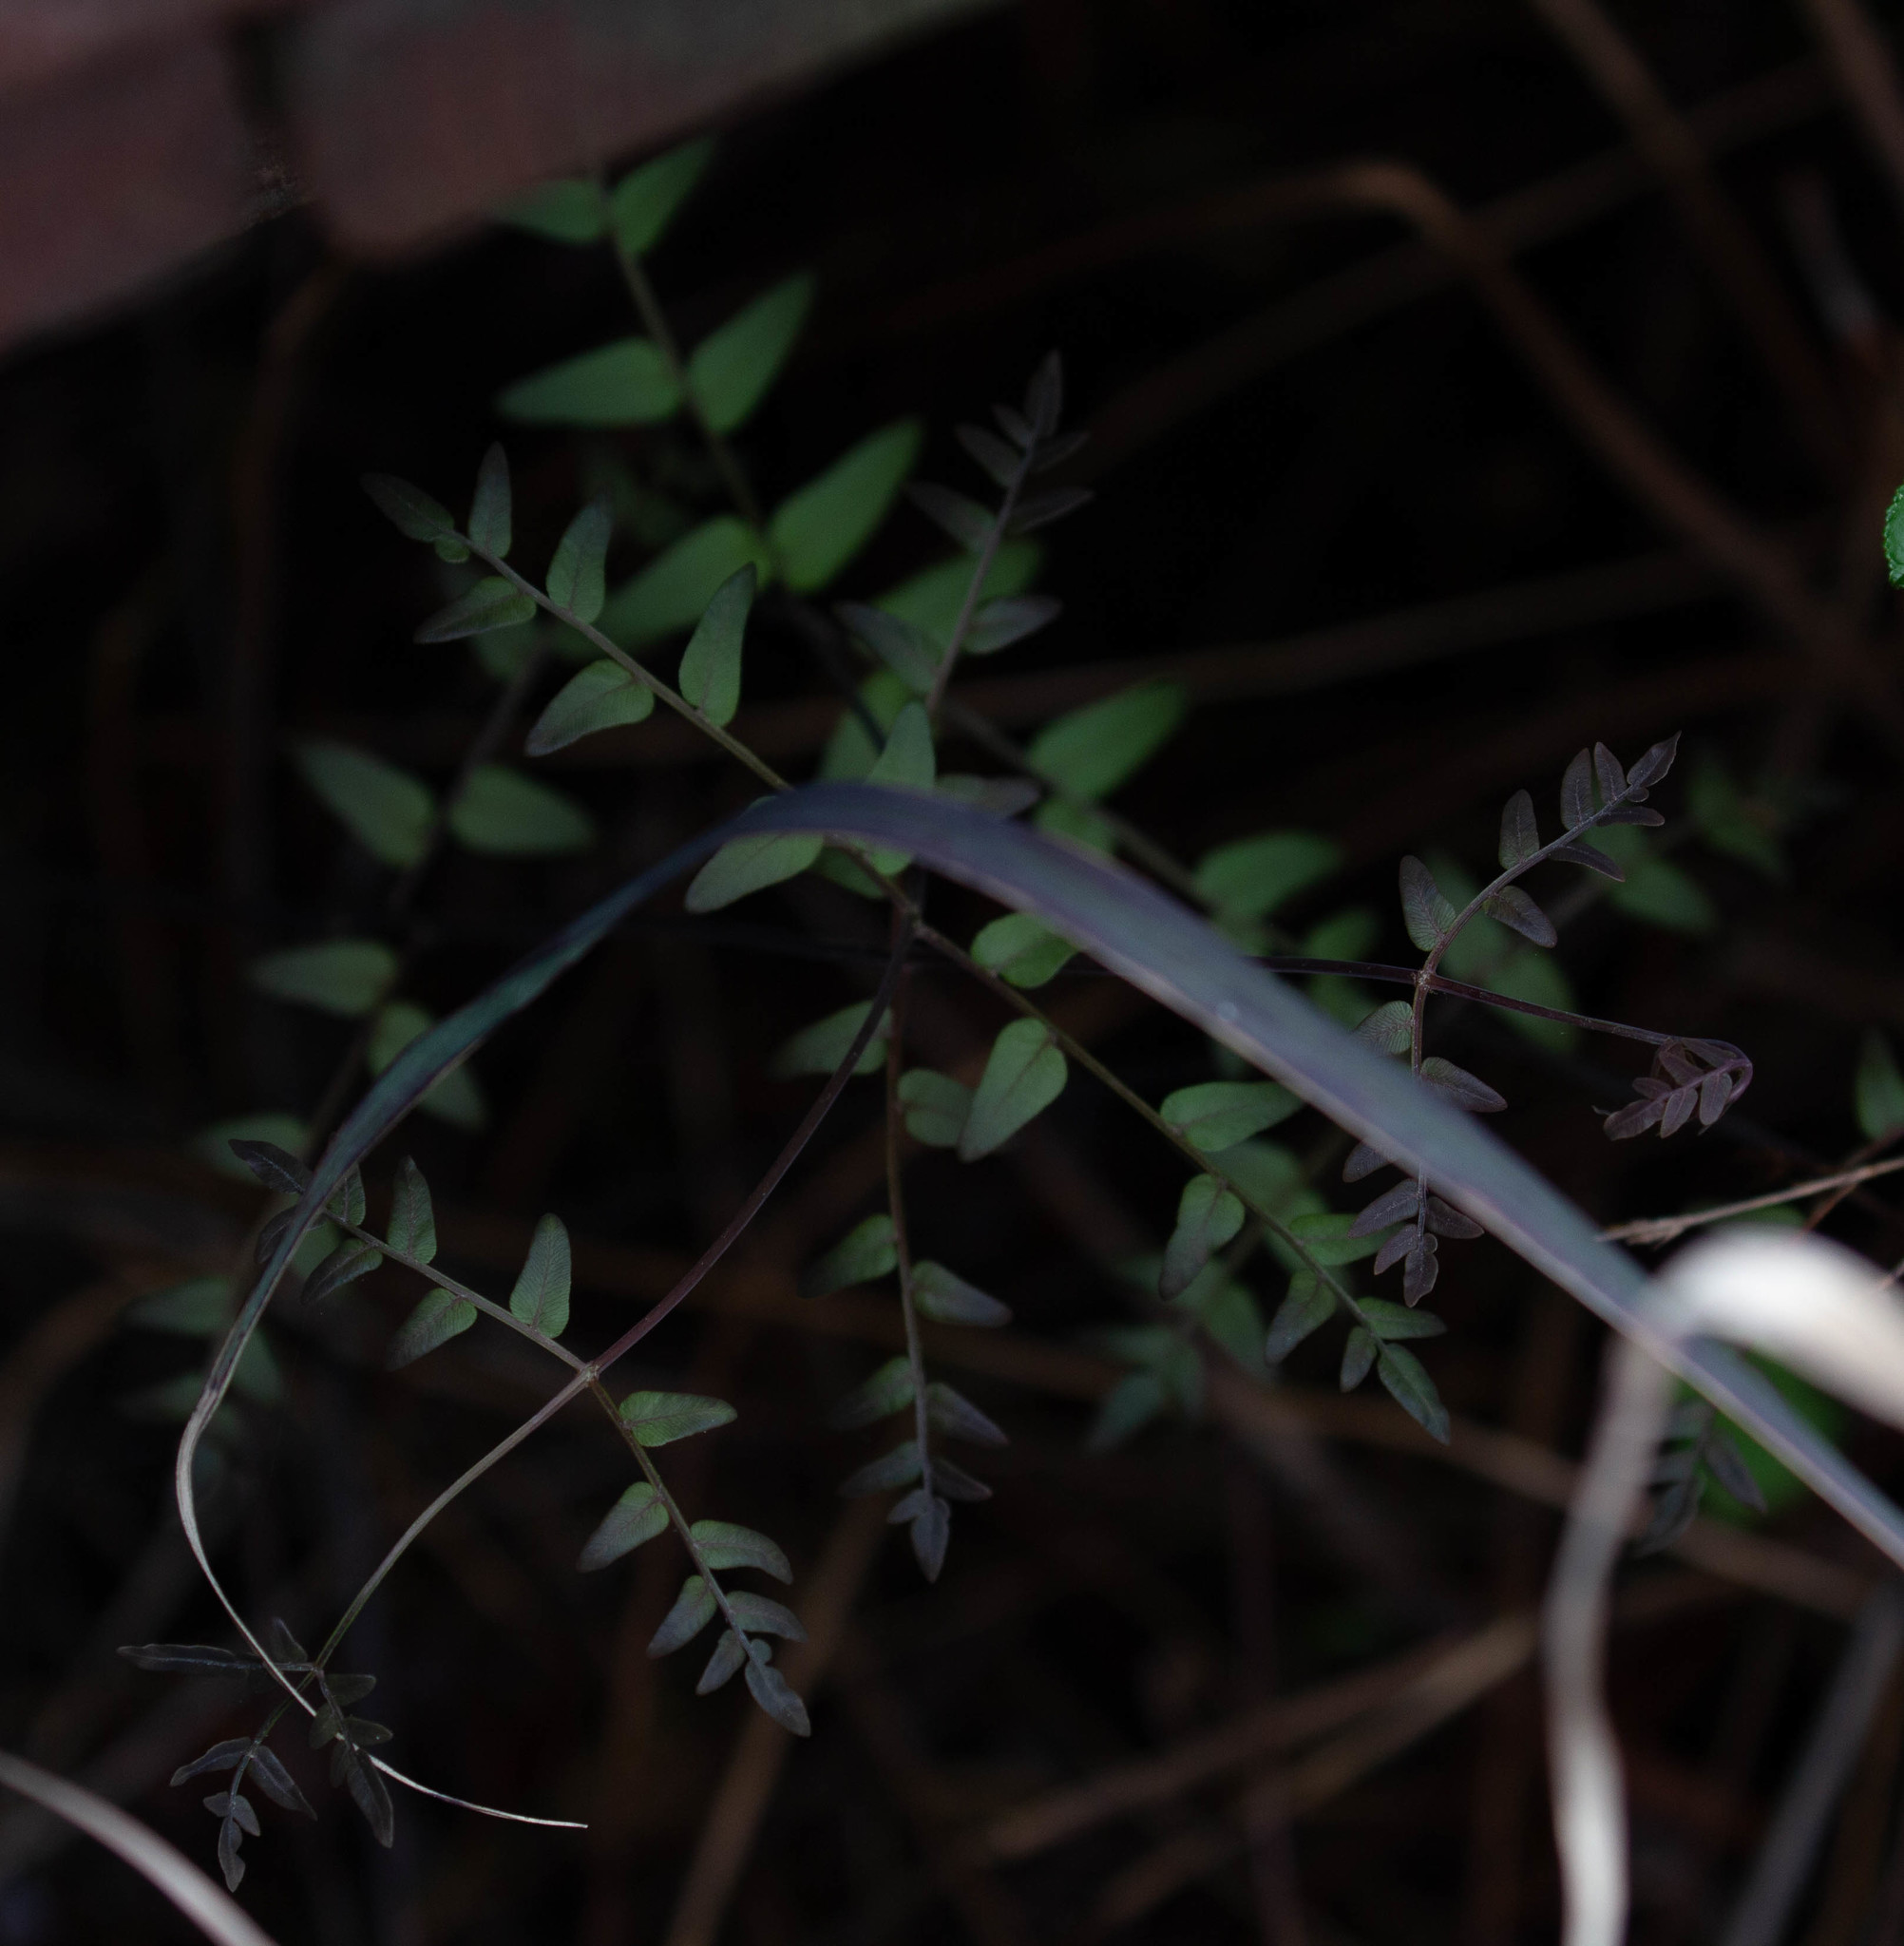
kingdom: Plantae
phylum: Tracheophyta
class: Polypodiopsida
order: Osmundales
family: Osmundaceae
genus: Osmunda
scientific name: Osmunda spectabilis
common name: American royal fern
